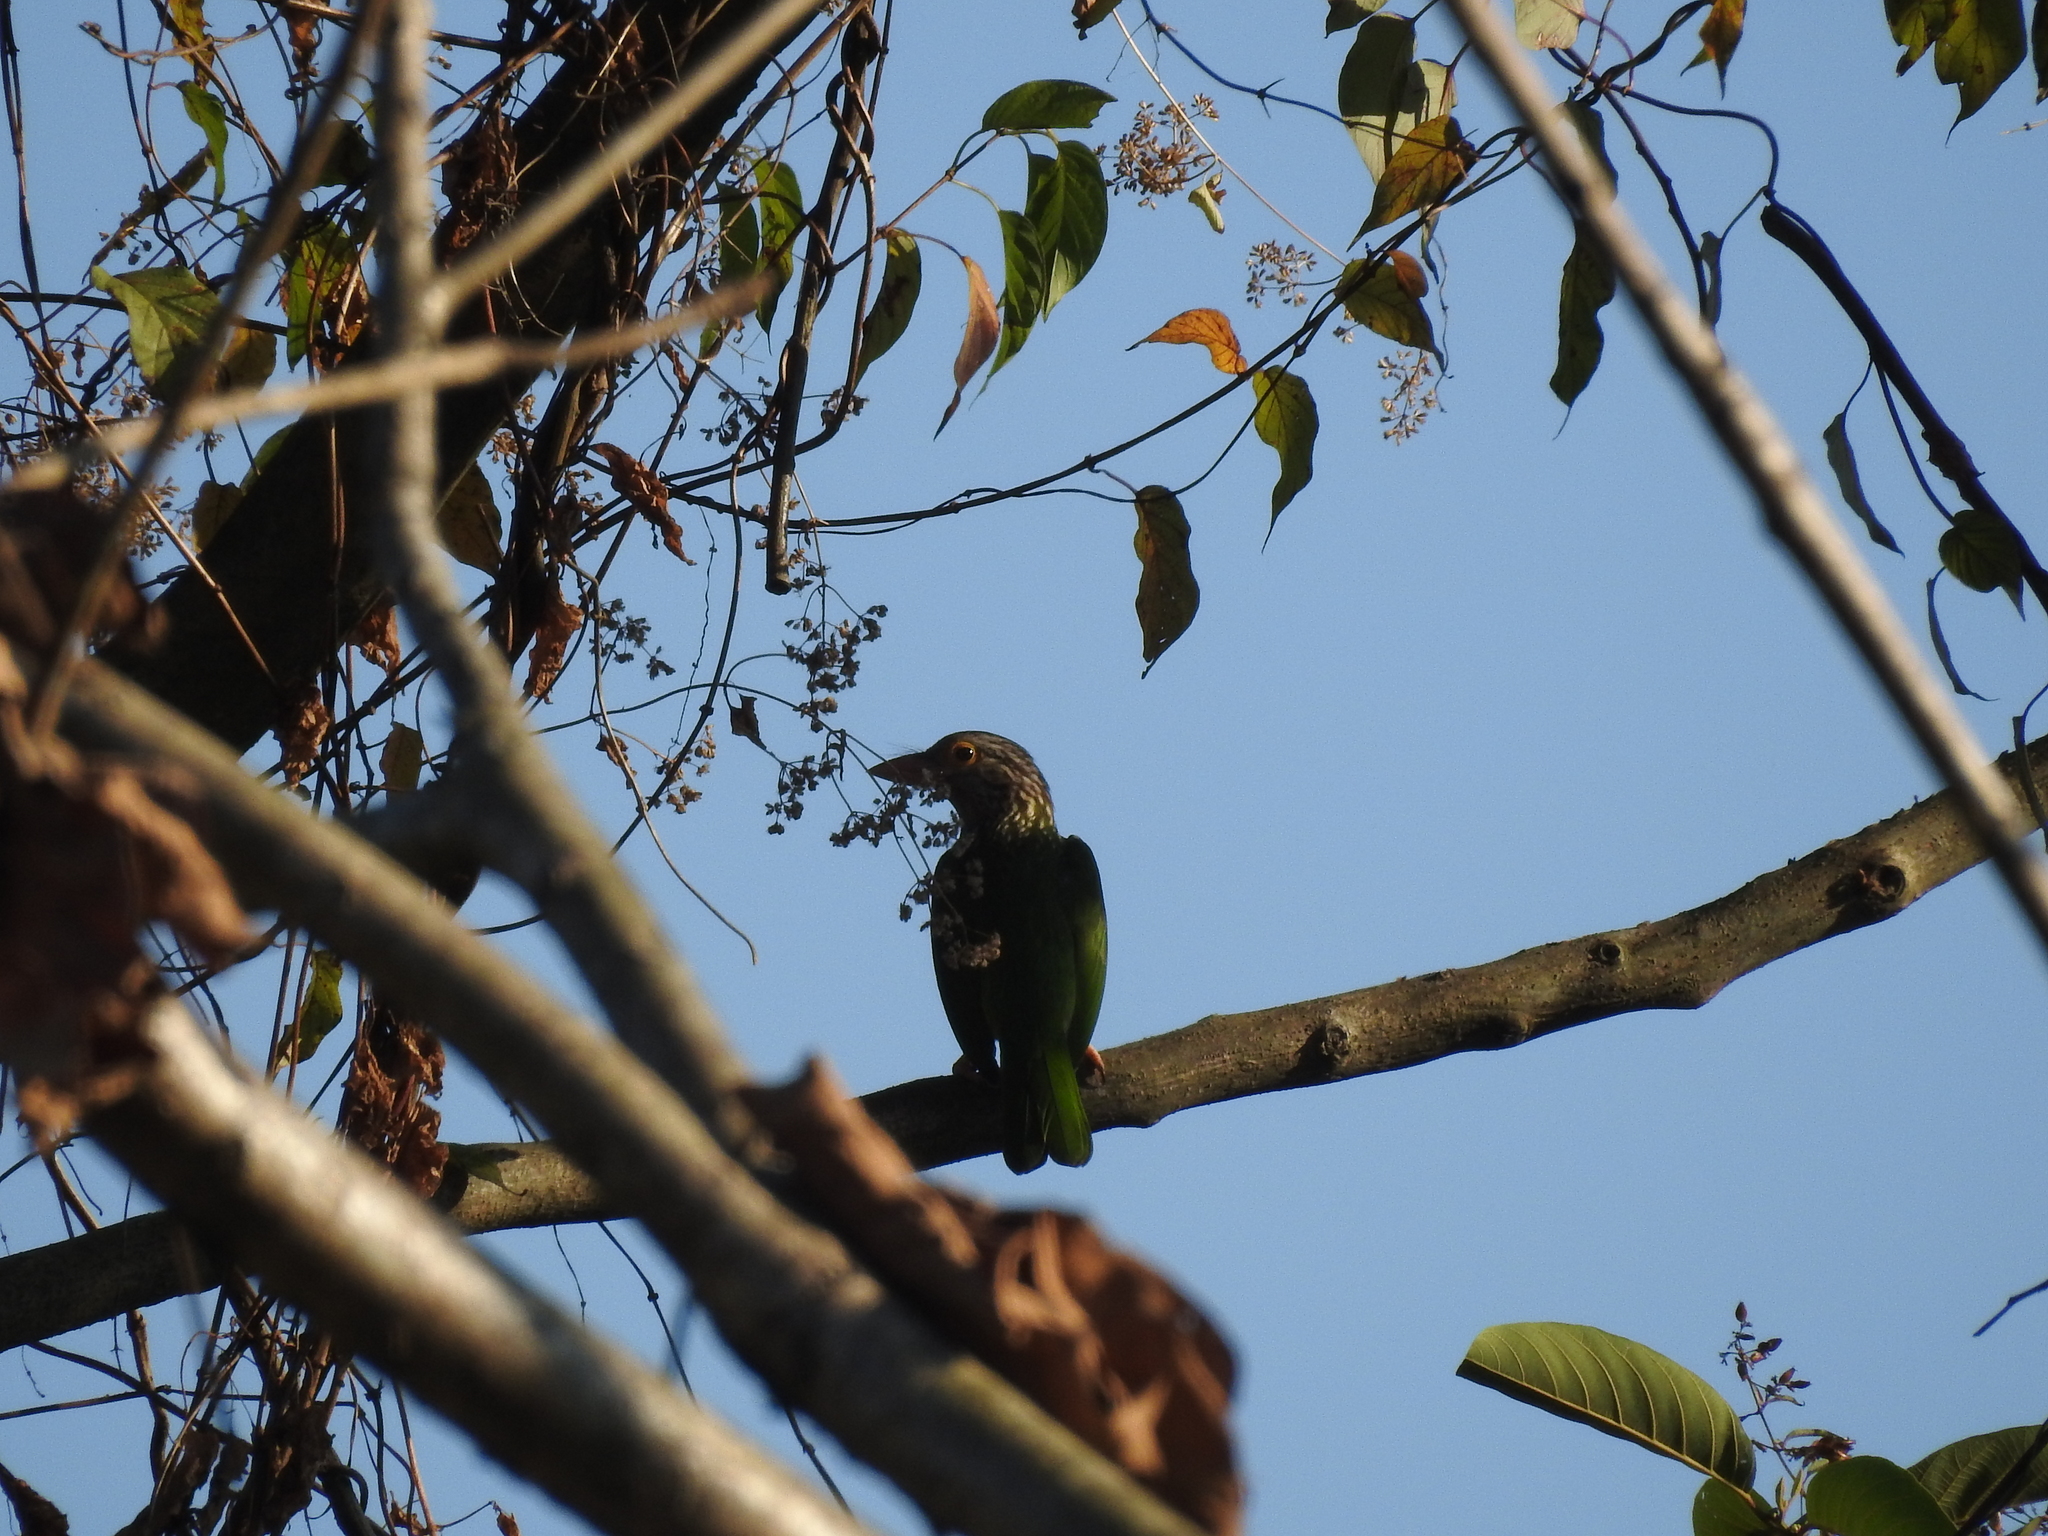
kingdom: Animalia
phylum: Chordata
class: Aves
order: Piciformes
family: Megalaimidae
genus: Psilopogon
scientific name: Psilopogon lineatus
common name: Lineated barbet
